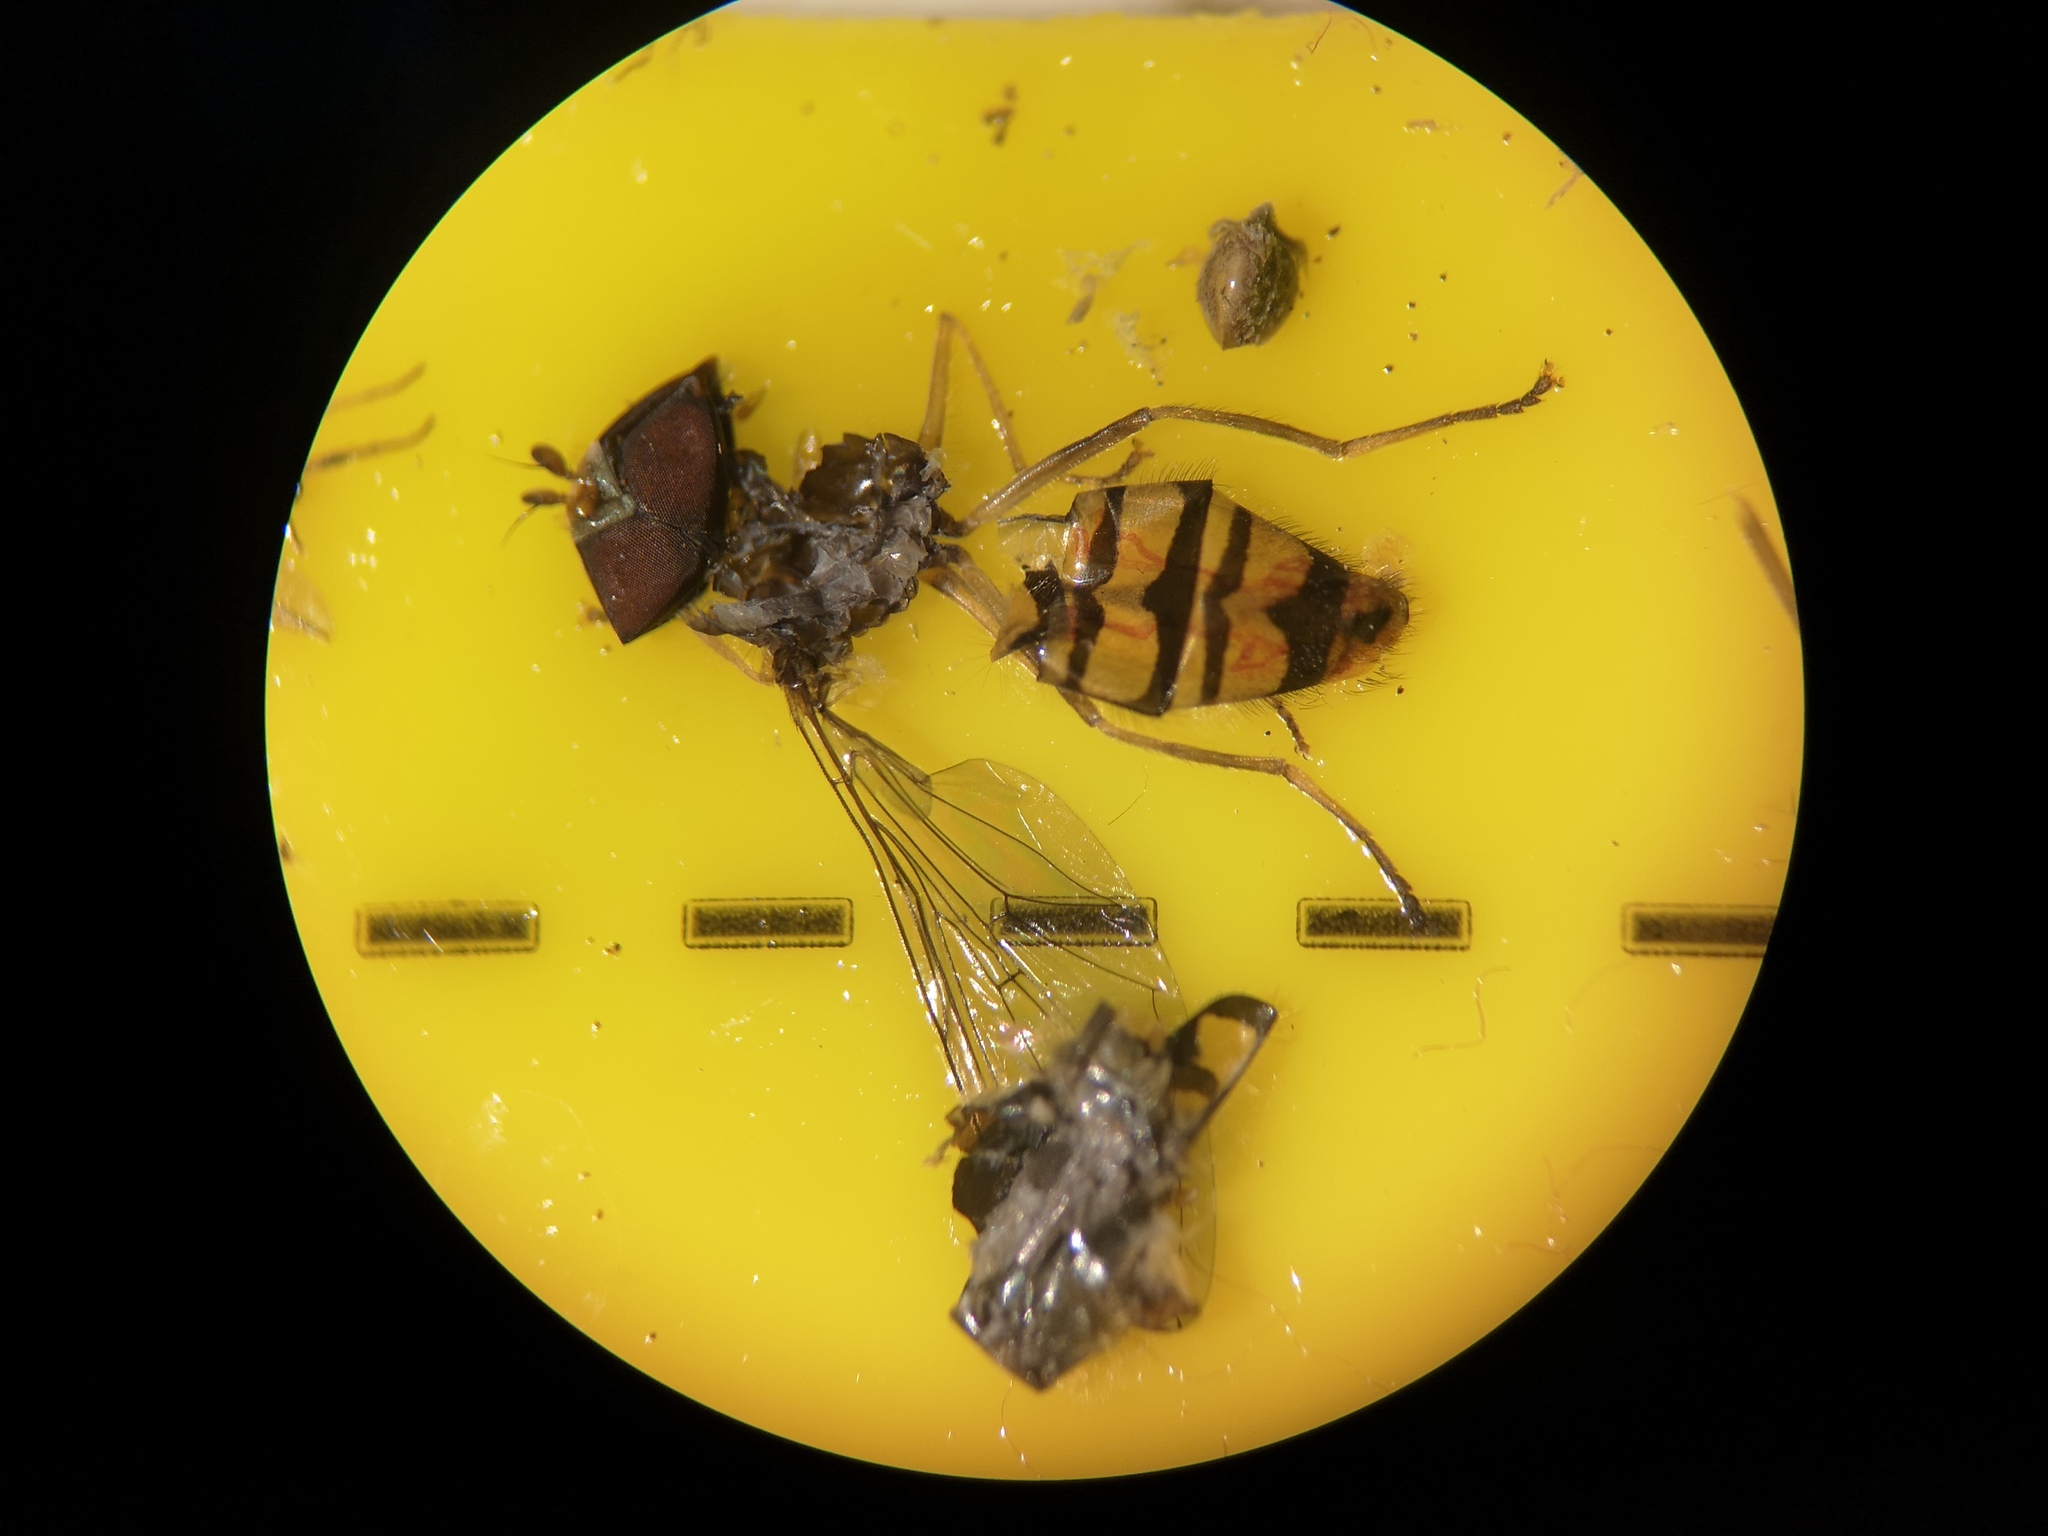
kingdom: Animalia
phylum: Arthropoda
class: Insecta
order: Diptera
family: Syrphidae
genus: Episyrphus
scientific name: Episyrphus balteatus
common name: Marmalade hoverfly
